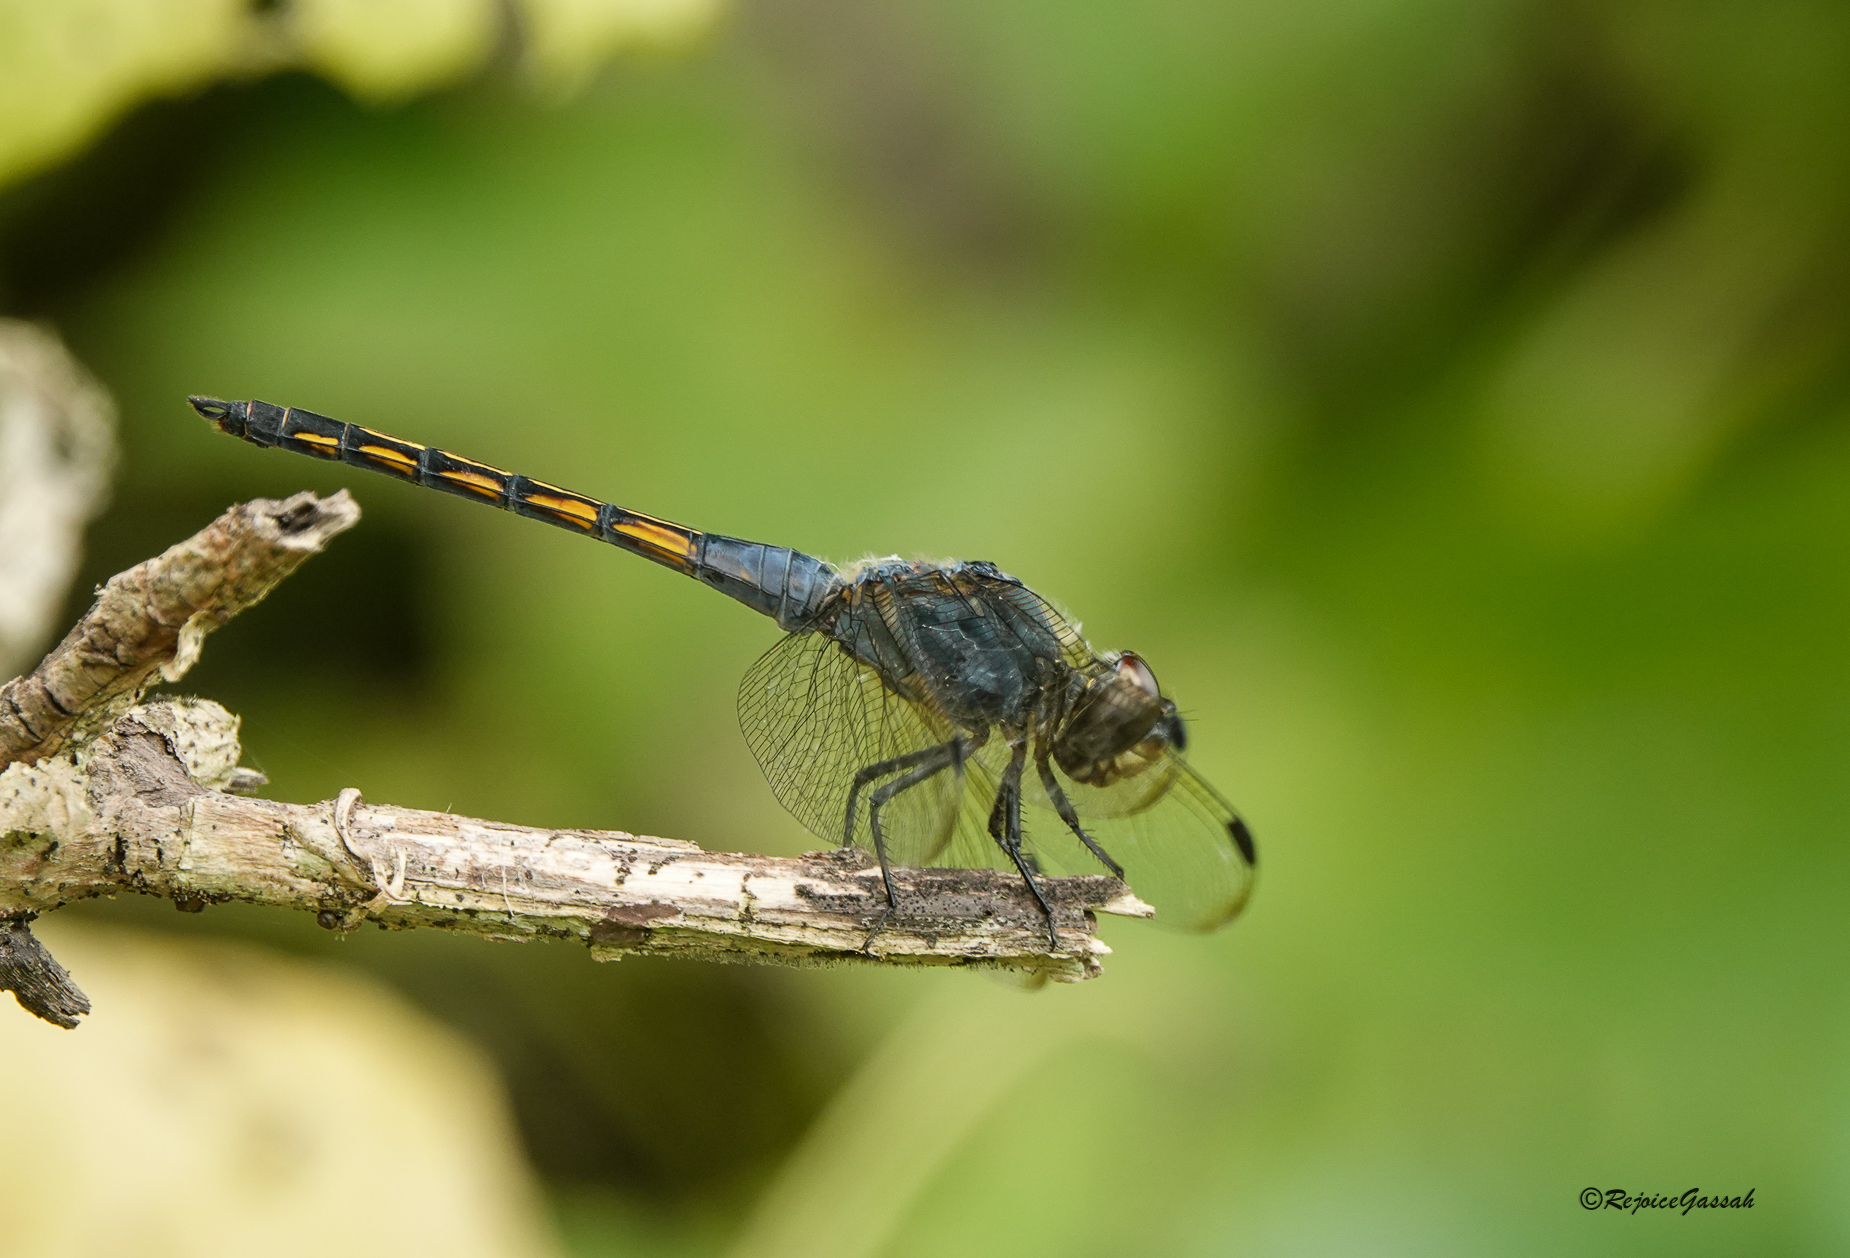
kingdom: Animalia
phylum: Arthropoda
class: Insecta
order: Odonata
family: Libellulidae
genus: Potamarcha
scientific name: Potamarcha congener
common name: Blue chaser
